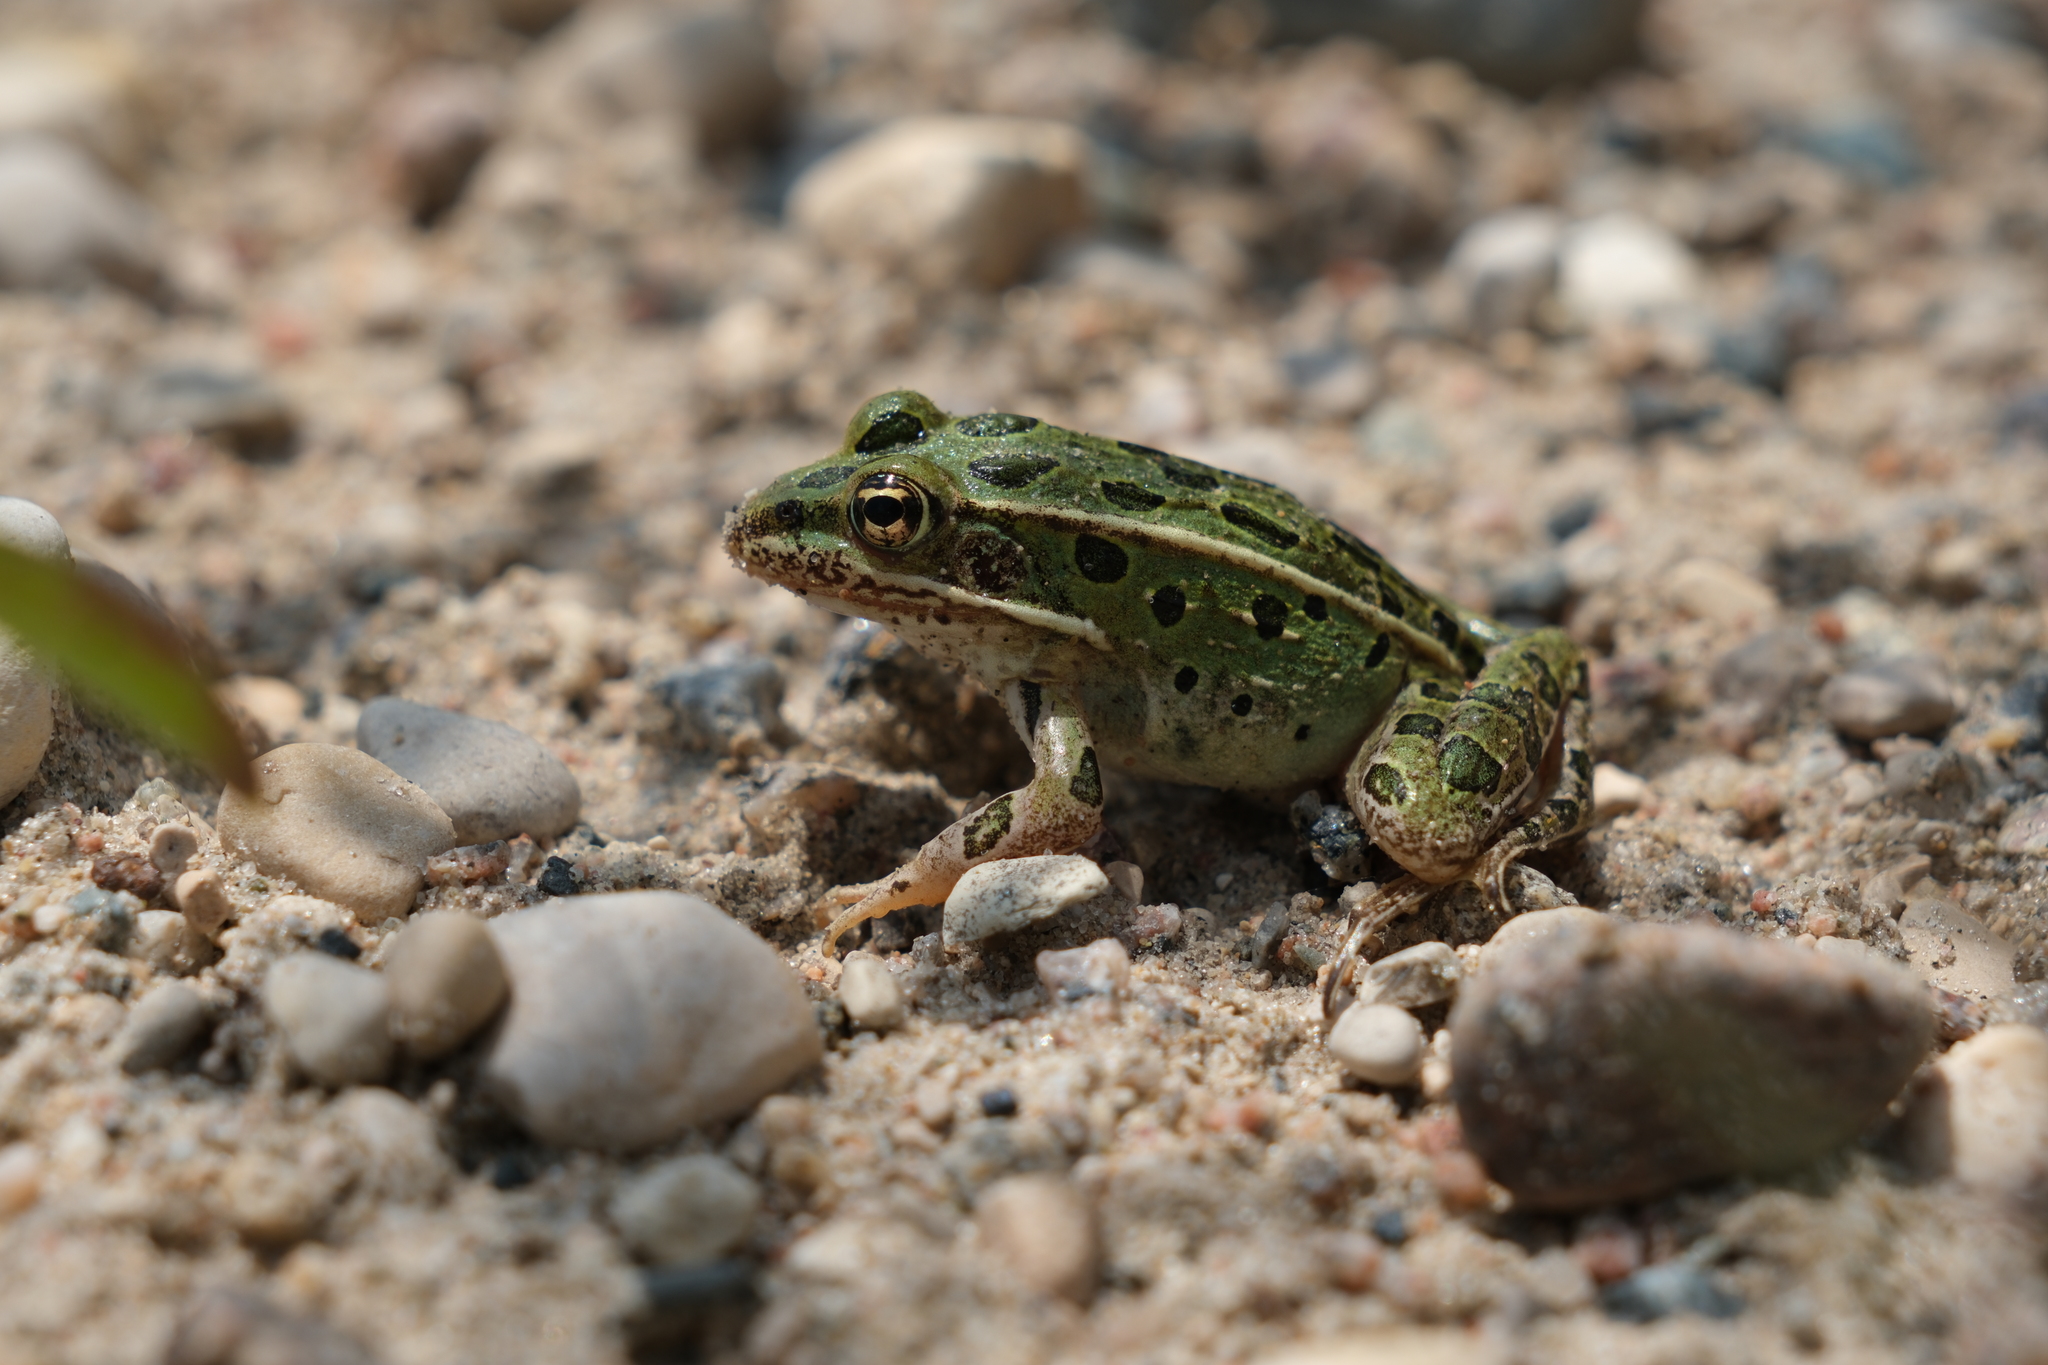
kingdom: Animalia
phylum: Chordata
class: Amphibia
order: Anura
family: Ranidae
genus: Lithobates
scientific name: Lithobates pipiens
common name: Northern leopard frog
